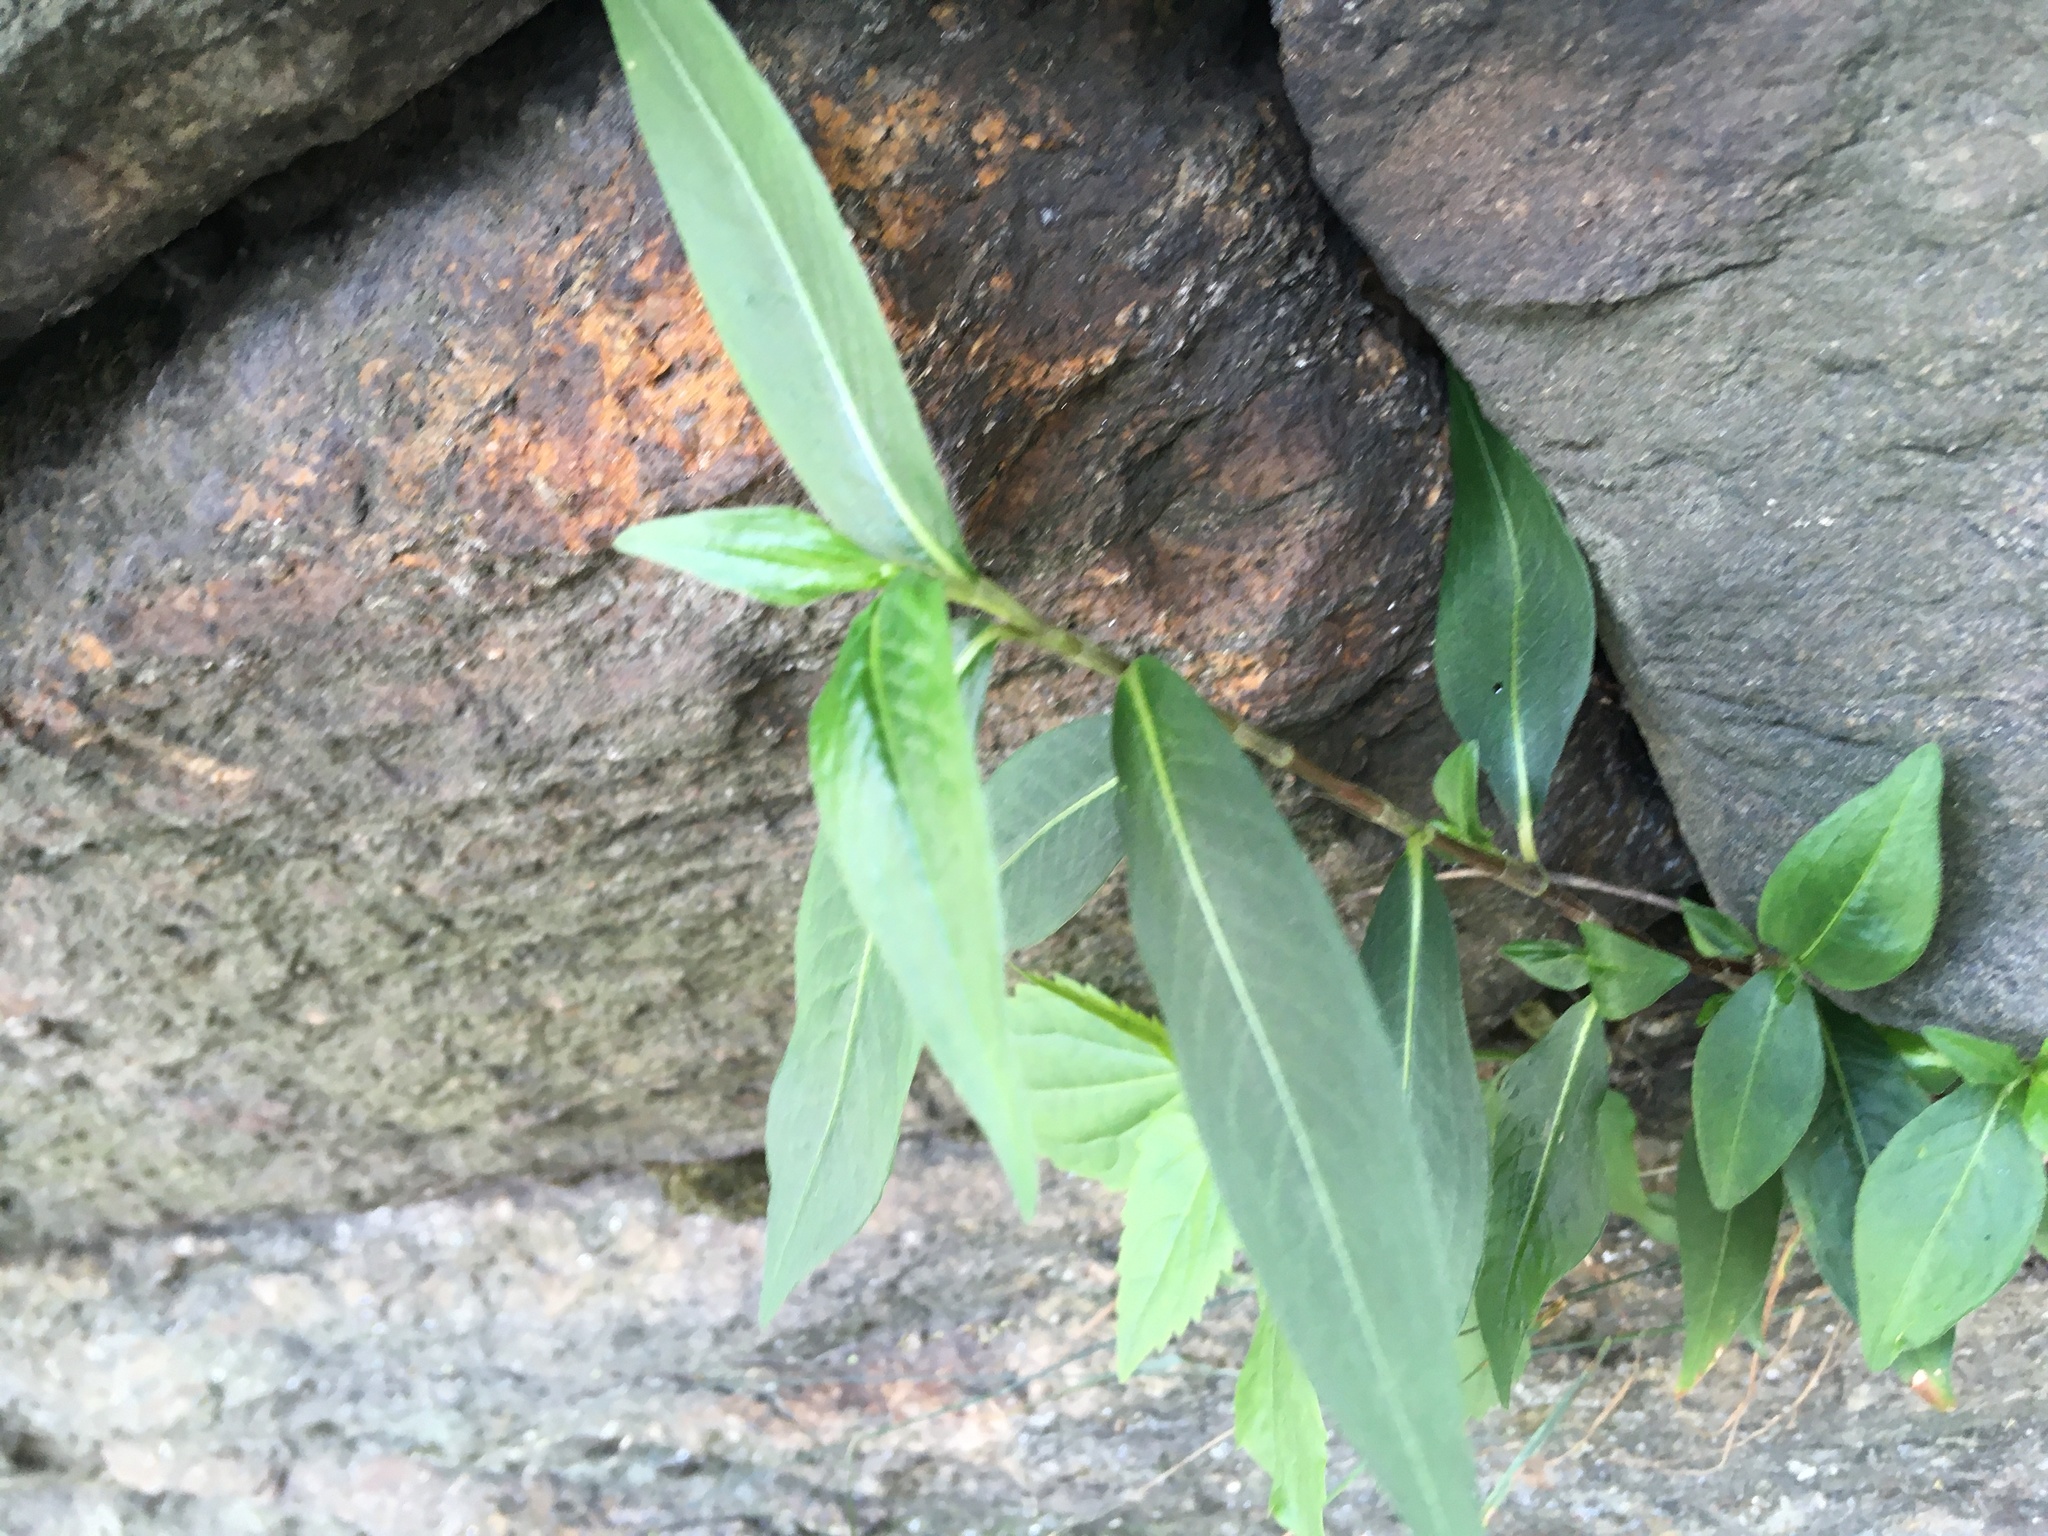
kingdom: Plantae
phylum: Tracheophyta
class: Magnoliopsida
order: Caryophyllales
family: Polygonaceae
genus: Persicaria
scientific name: Persicaria longiseta
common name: Bristly lady's-thumb
